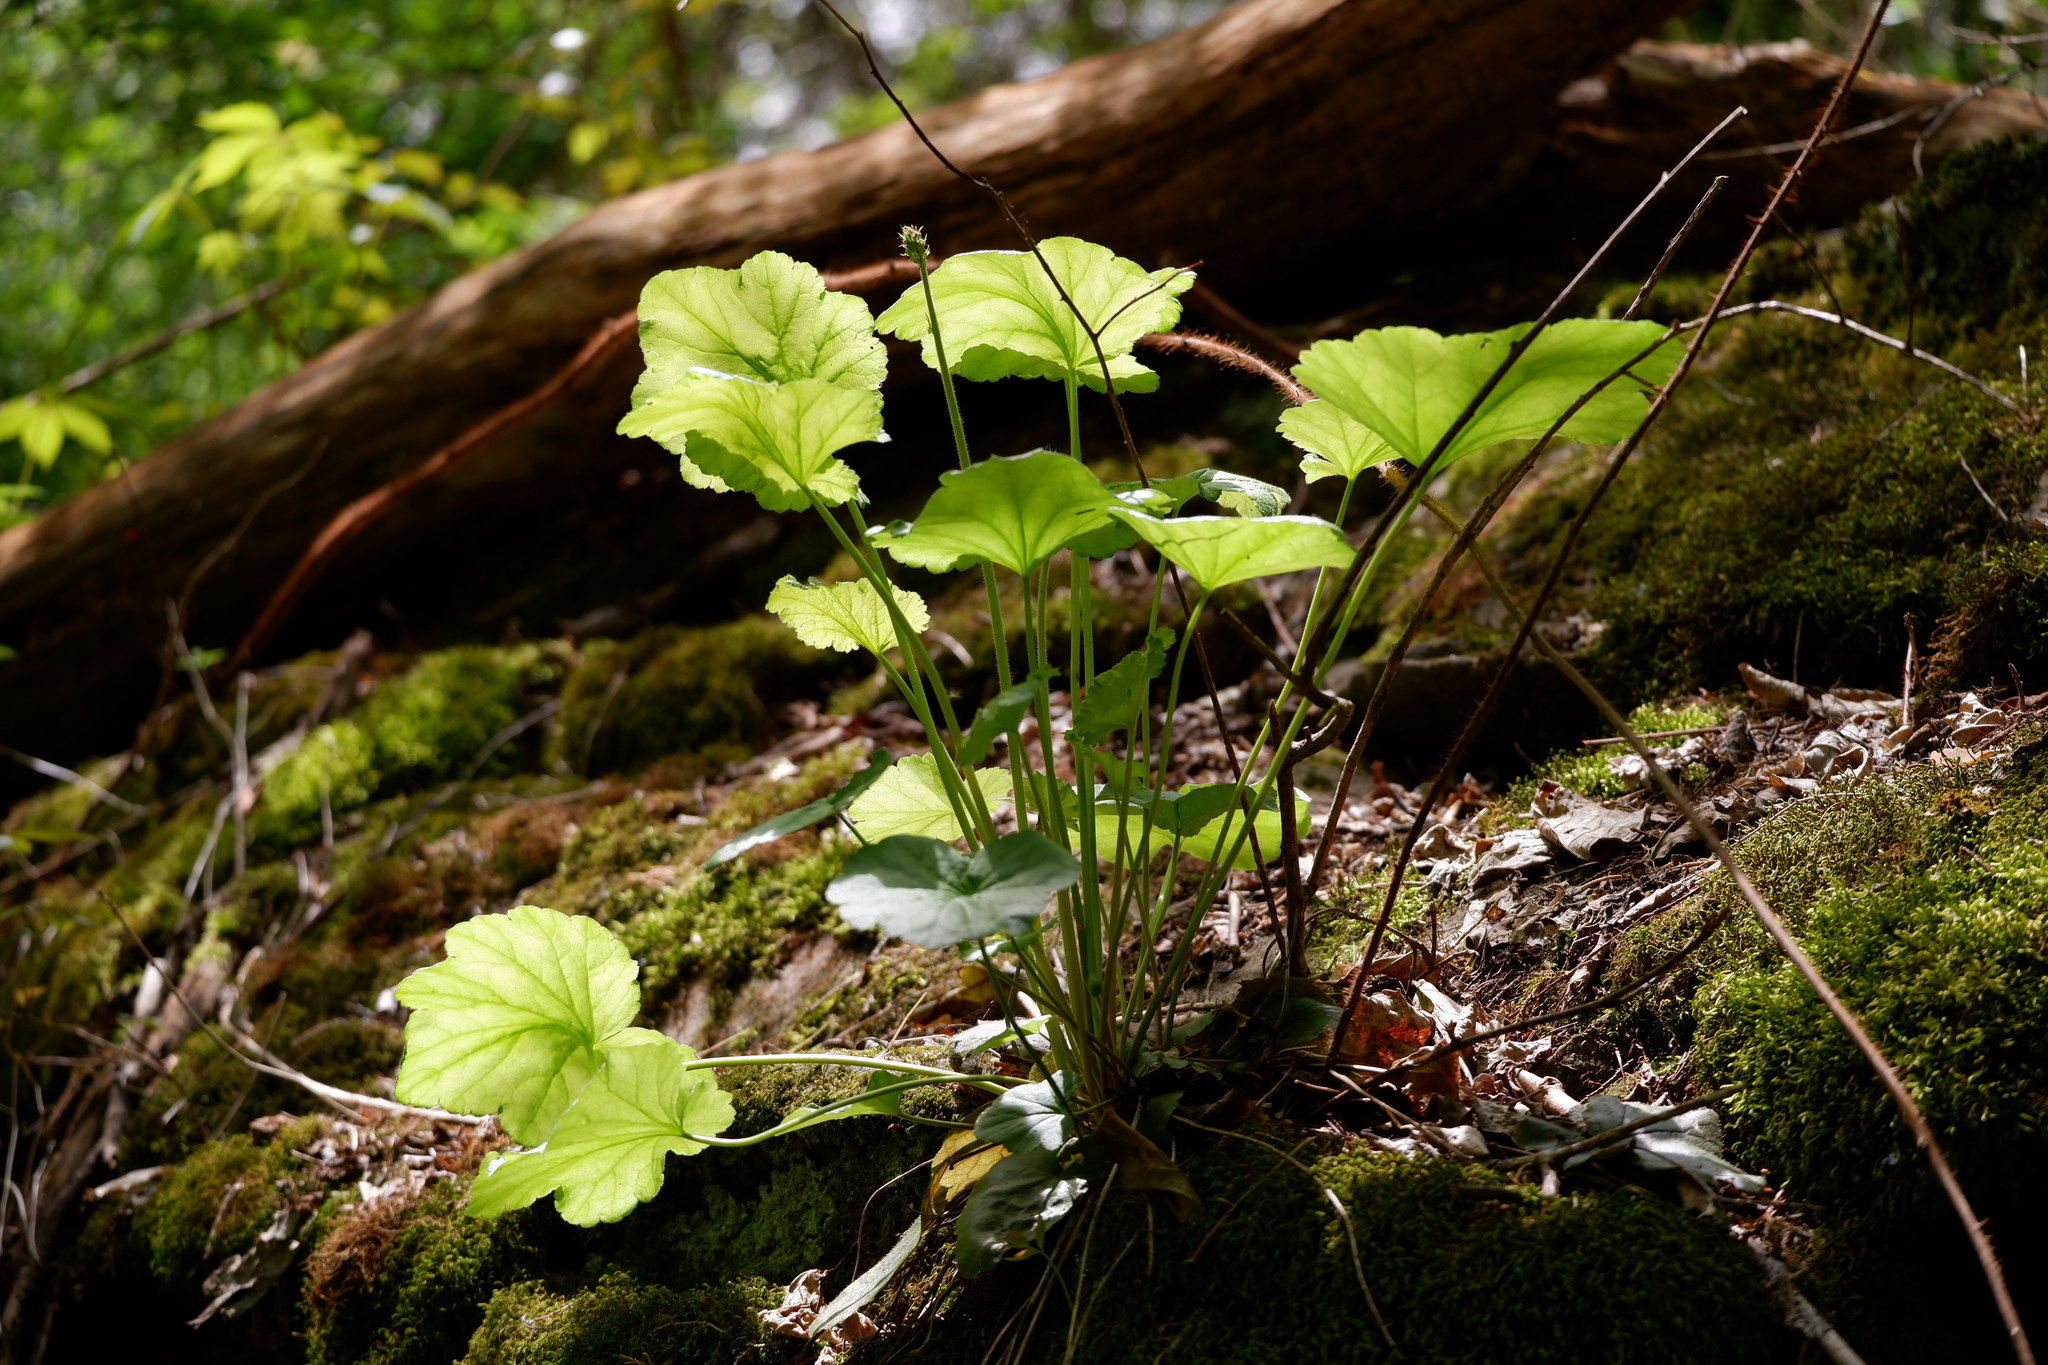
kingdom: Plantae
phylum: Tracheophyta
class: Magnoliopsida
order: Saxifragales
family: Saxifragaceae
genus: Heuchera
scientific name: Heuchera americana
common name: Alumroot
